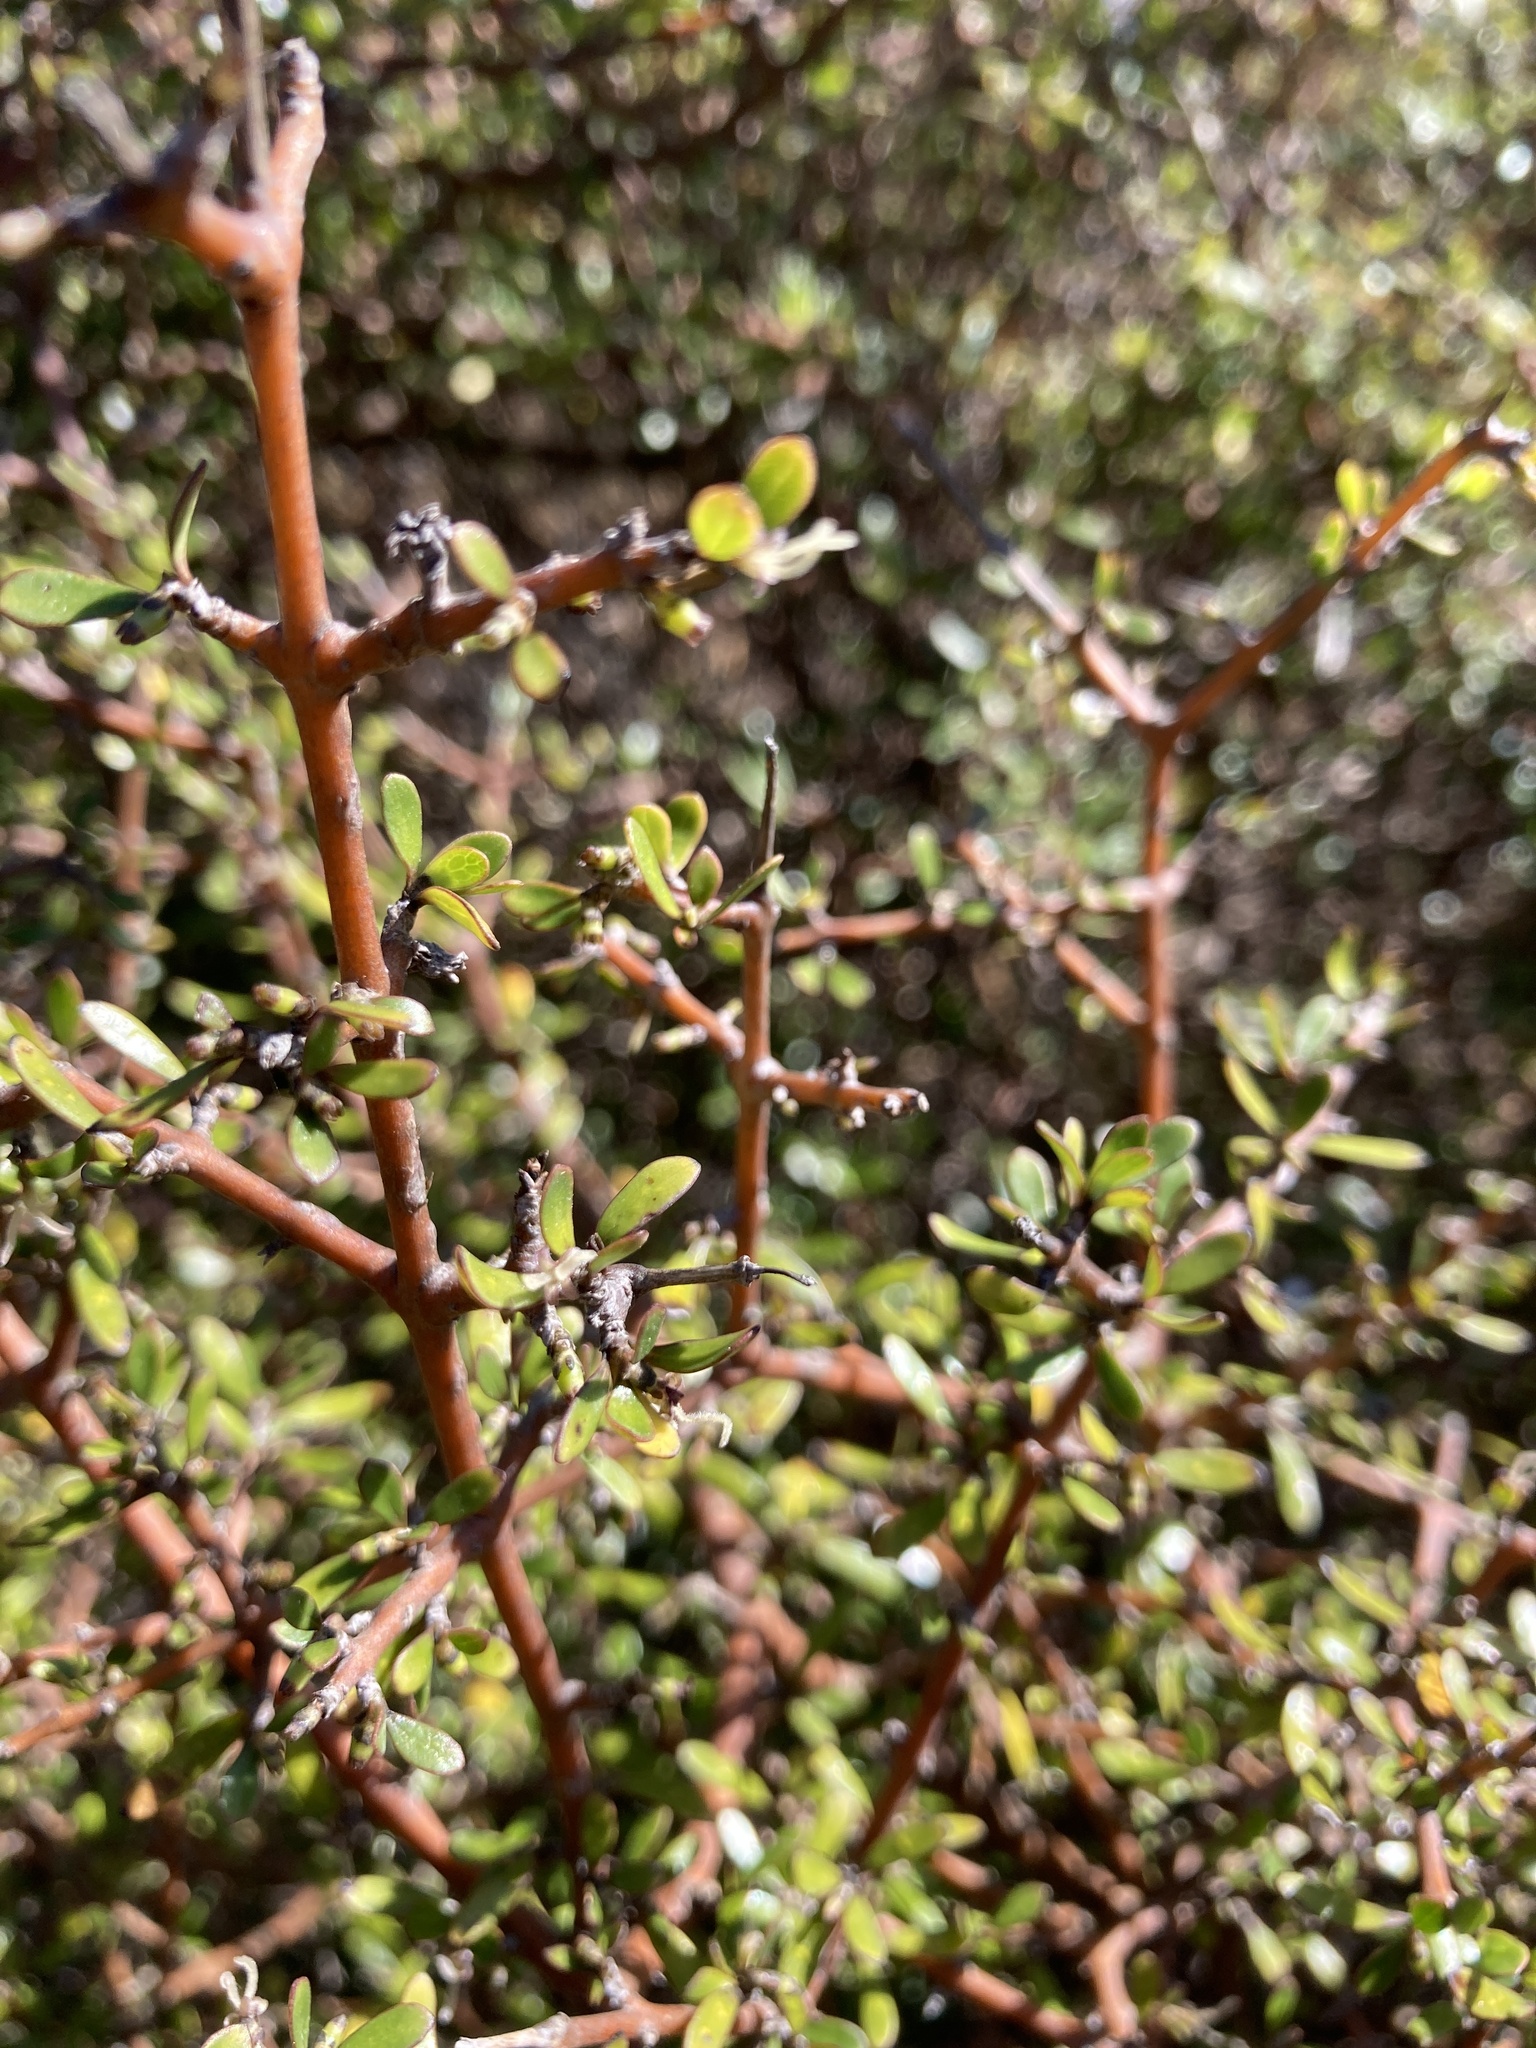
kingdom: Plantae
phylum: Tracheophyta
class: Magnoliopsida
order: Gentianales
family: Rubiaceae
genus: Coprosma
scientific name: Coprosma propinqua
